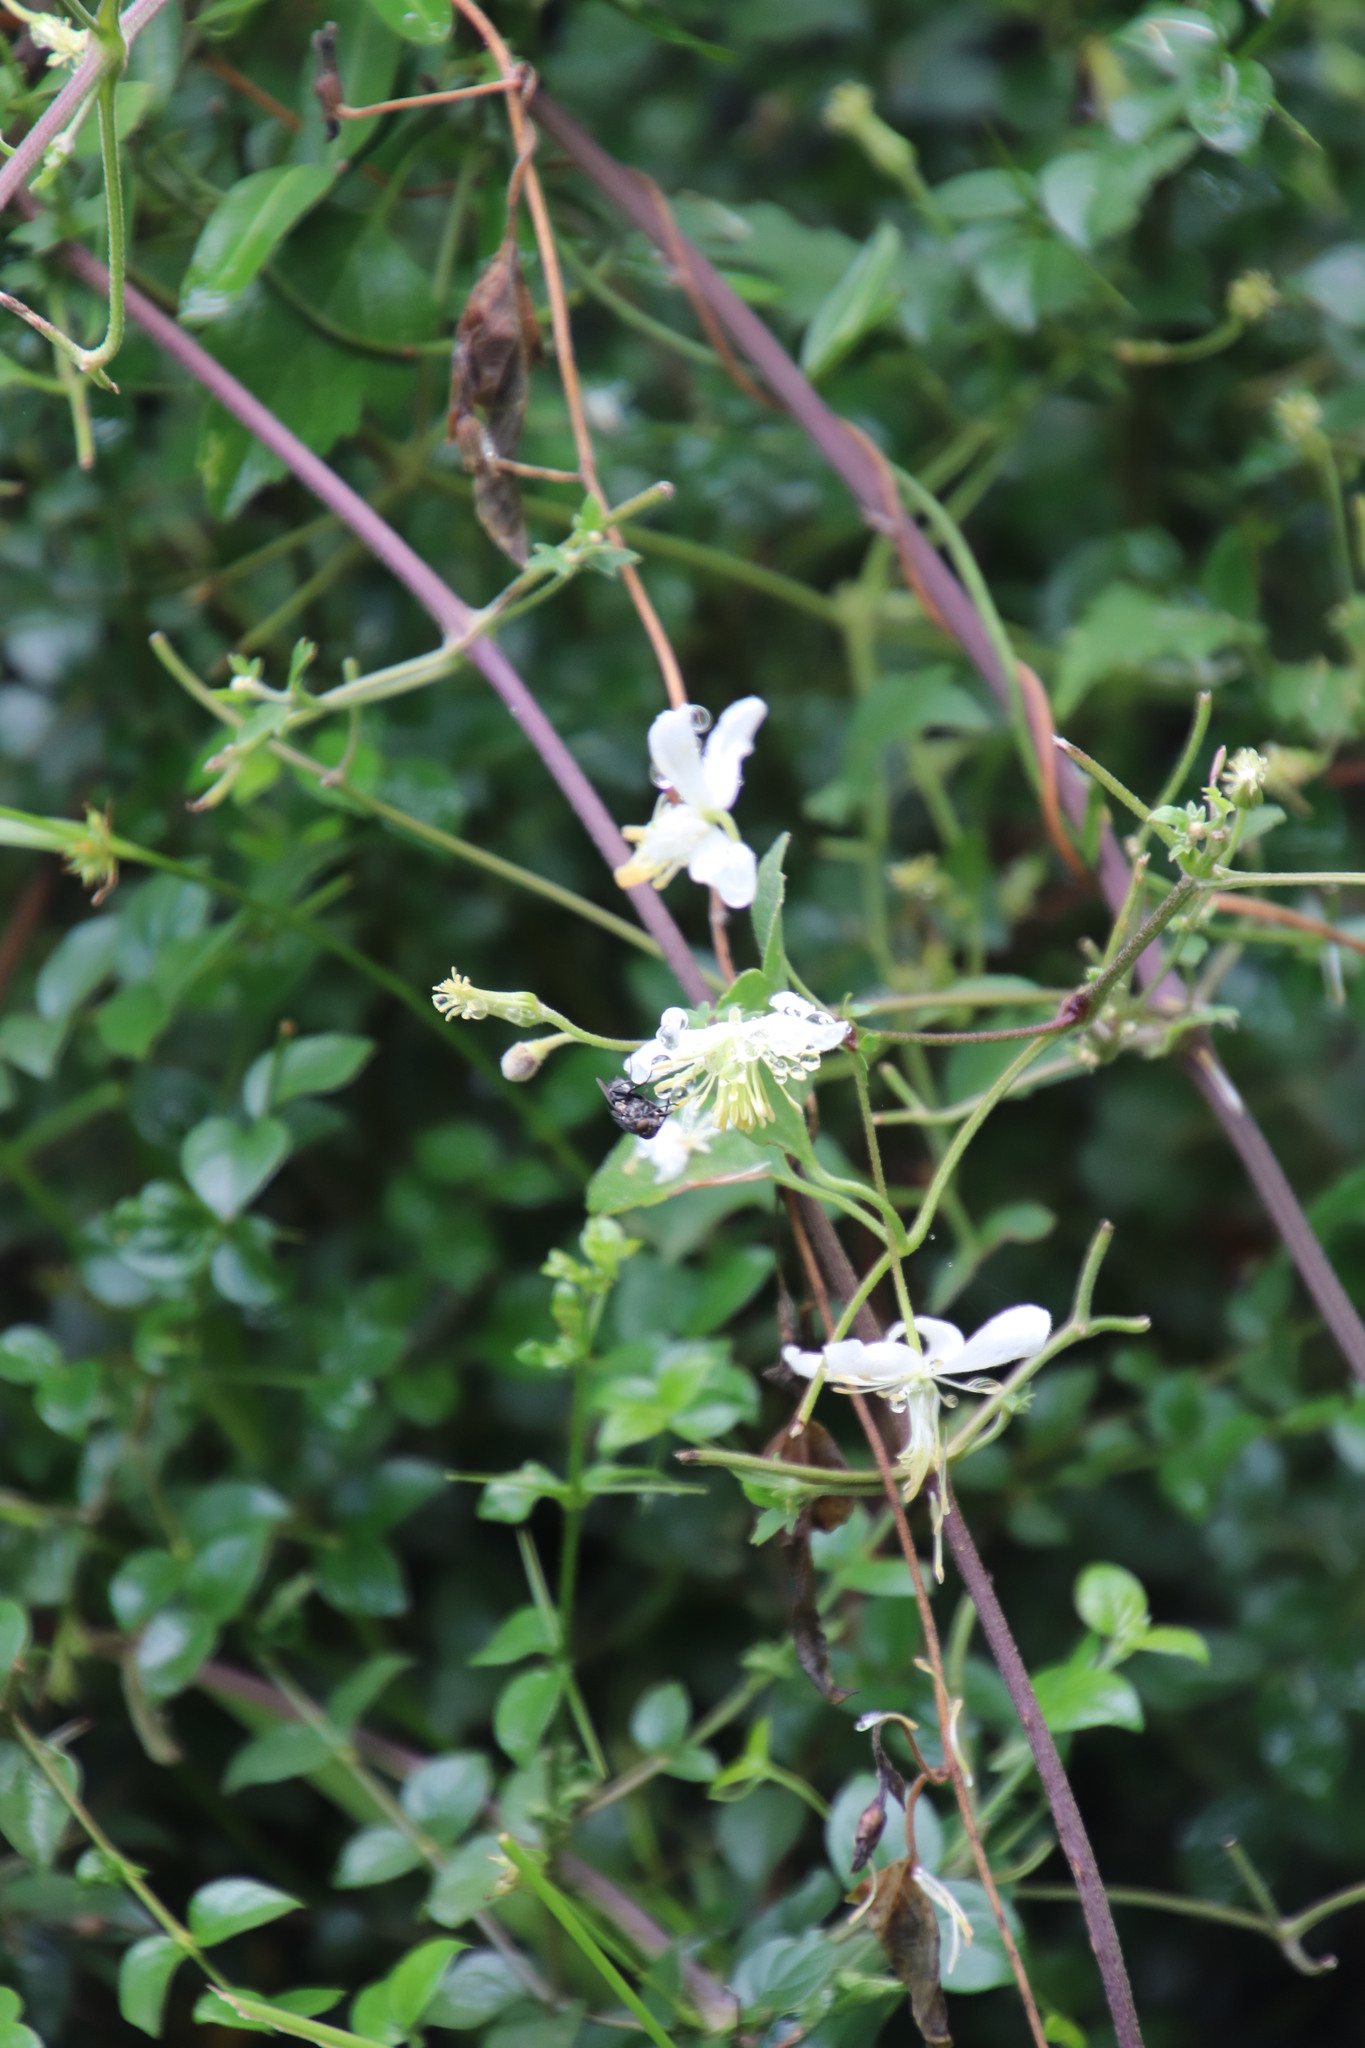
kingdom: Plantae
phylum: Tracheophyta
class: Magnoliopsida
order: Ranunculales
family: Ranunculaceae
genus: Clematis
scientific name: Clematis brachiata
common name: Traveler's-joy
